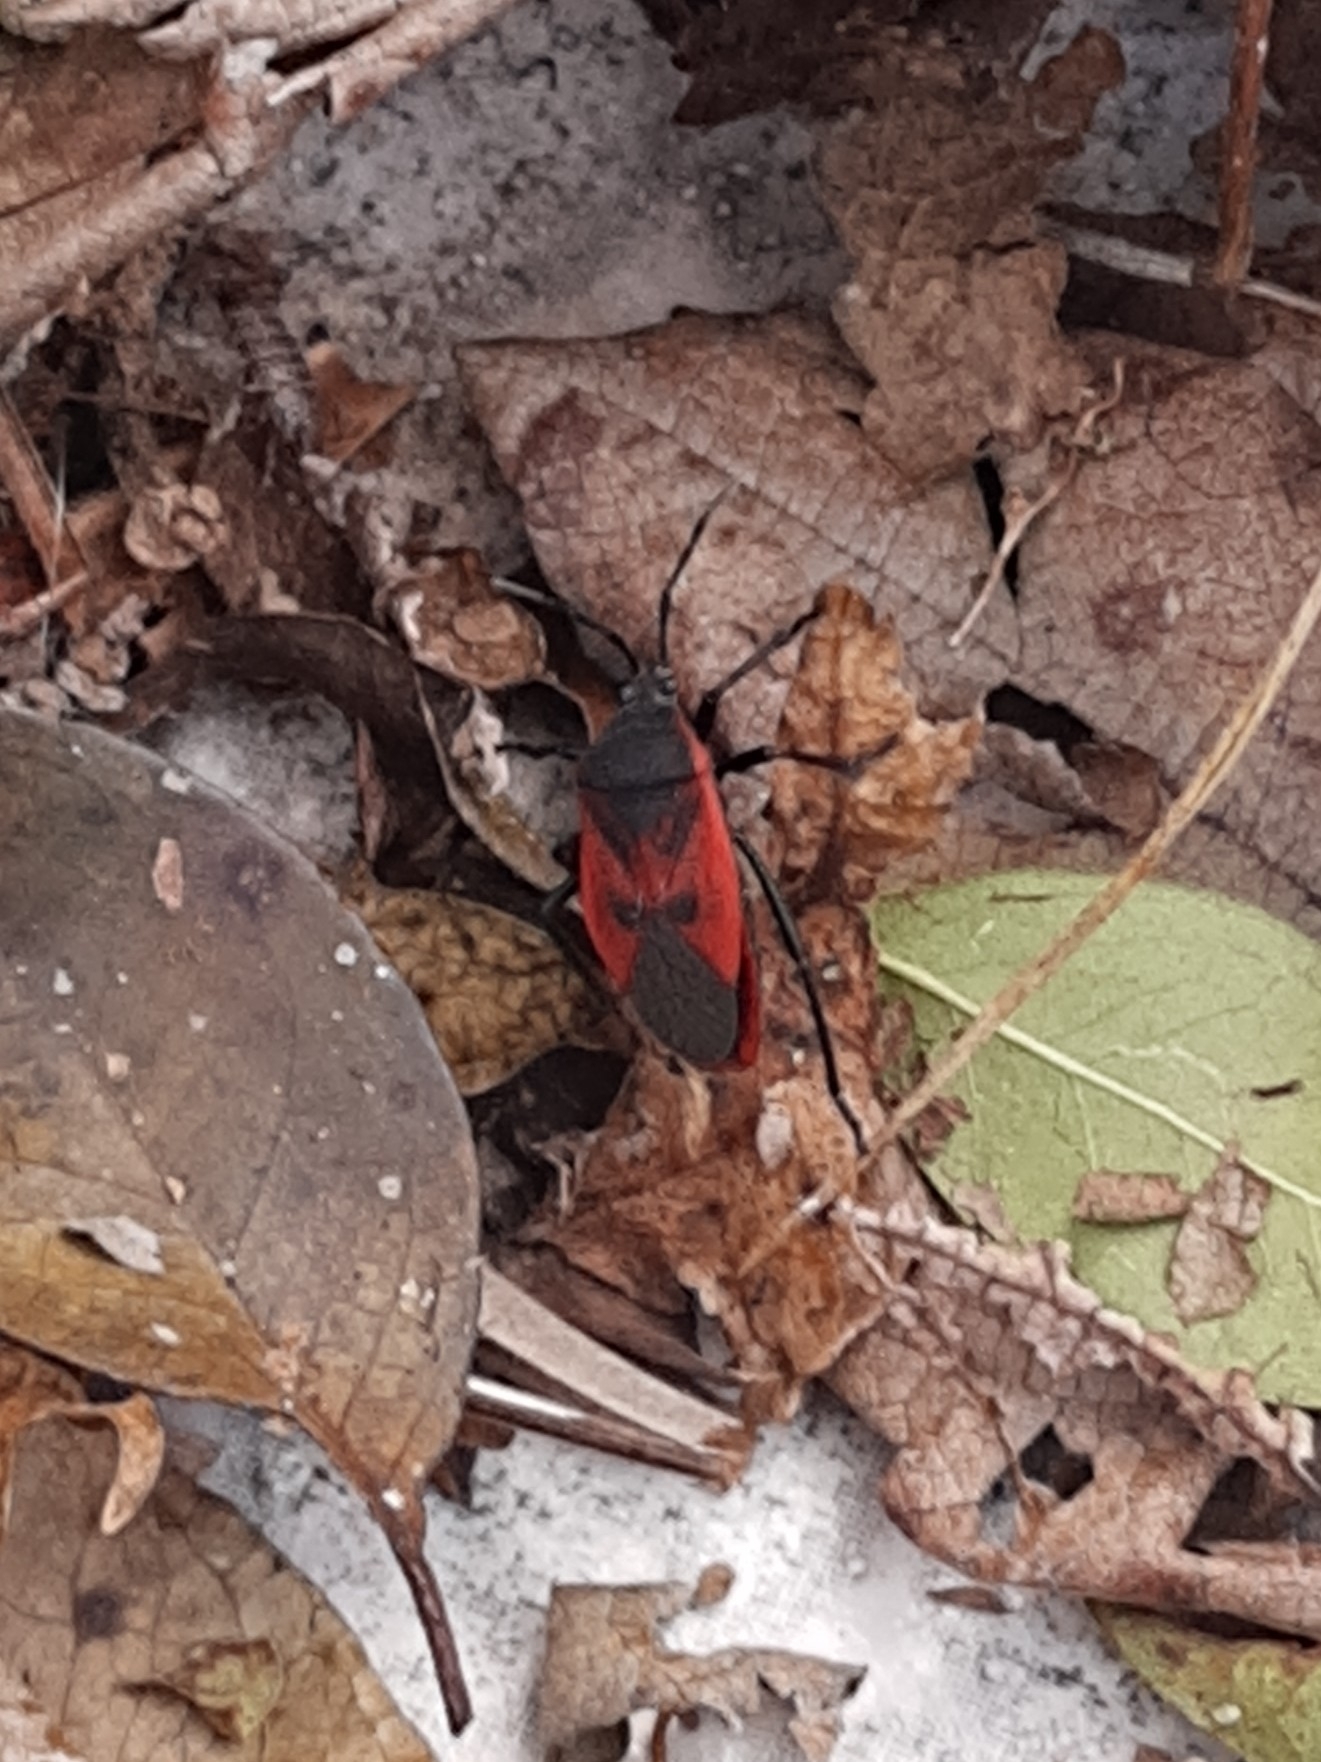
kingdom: Animalia
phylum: Arthropoda
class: Insecta
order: Hemiptera
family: Largidae
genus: Largus
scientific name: Largus rufipennis
